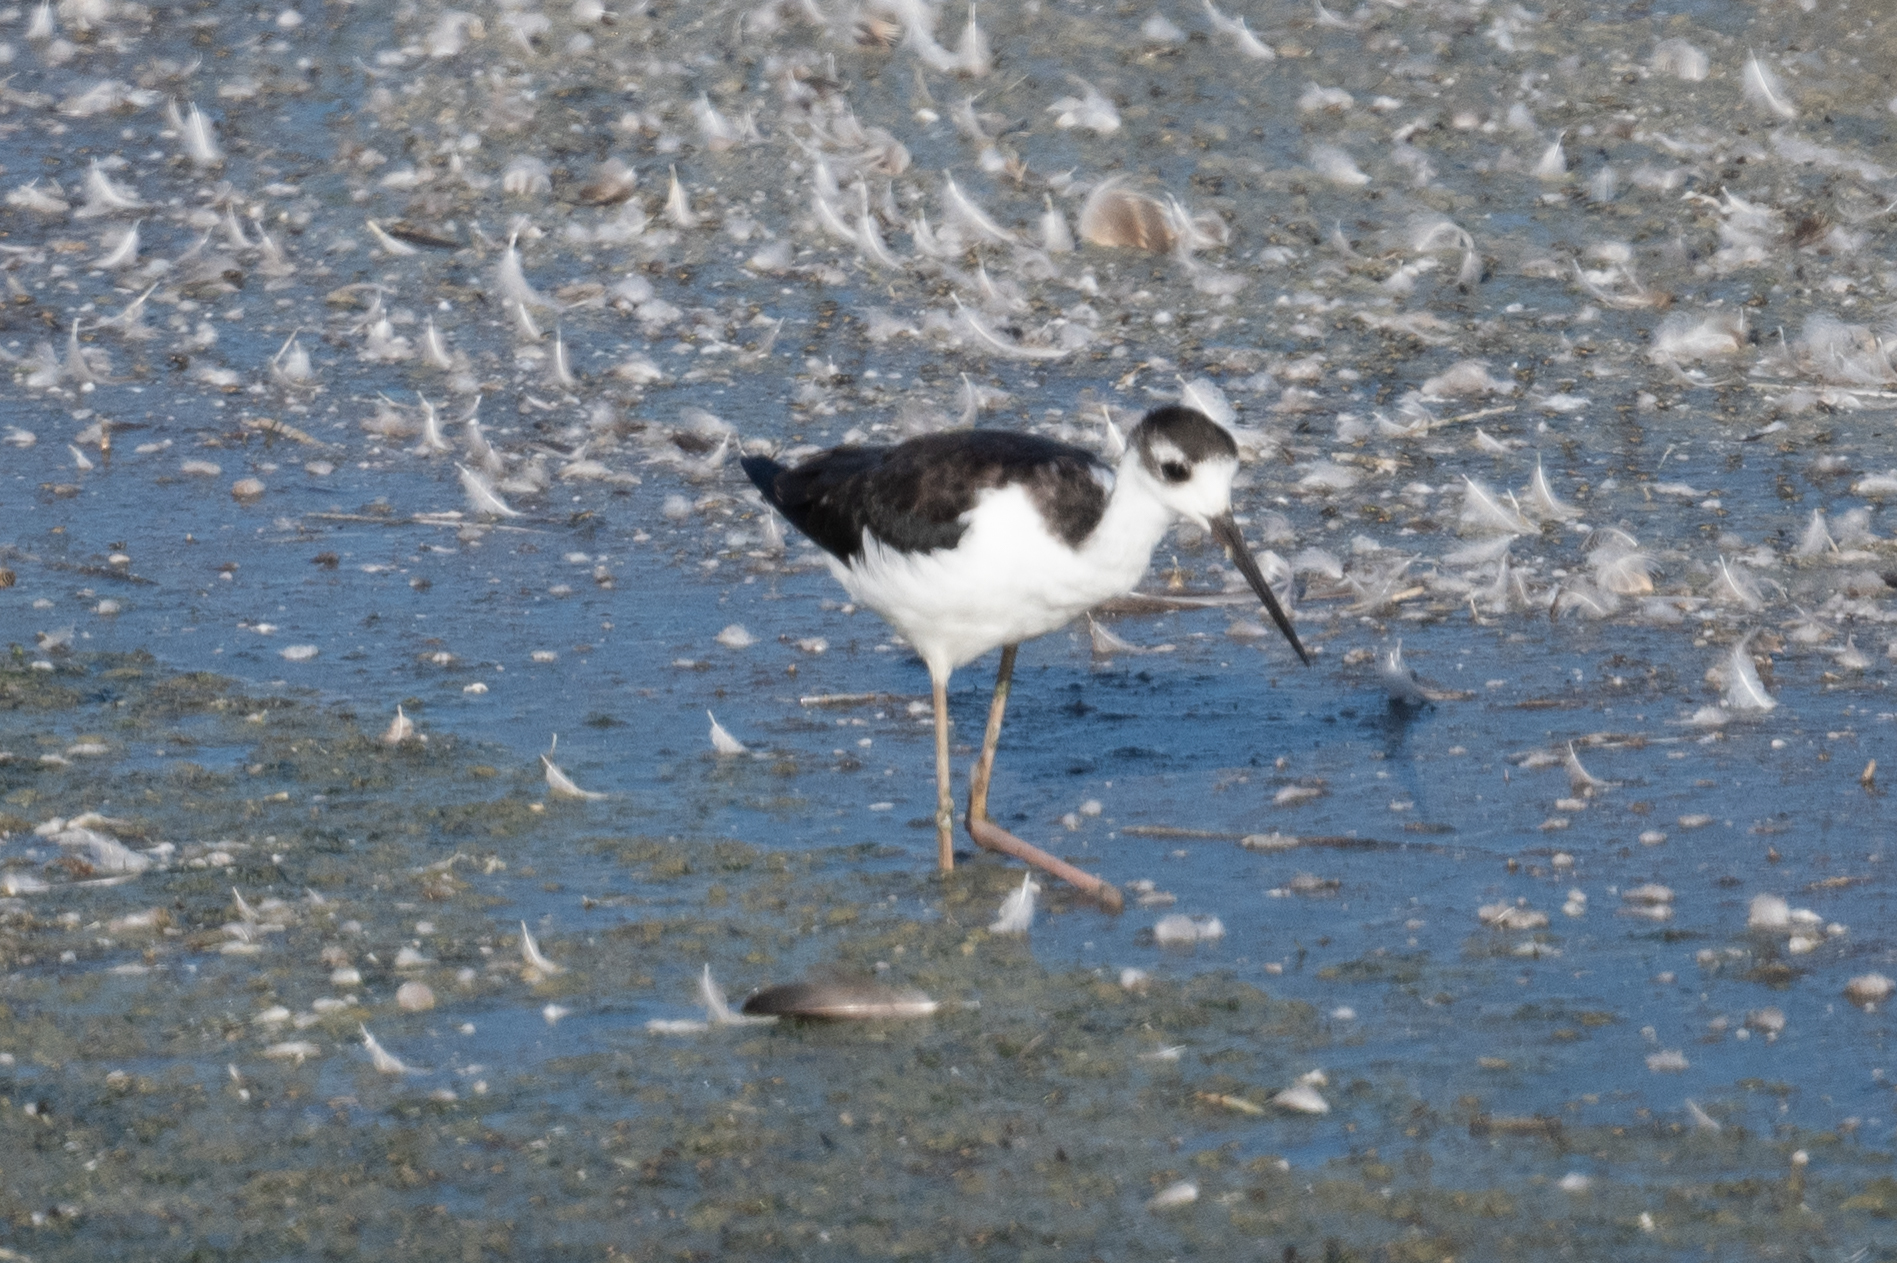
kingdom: Animalia
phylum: Chordata
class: Aves
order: Charadriiformes
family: Recurvirostridae
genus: Himantopus
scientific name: Himantopus mexicanus
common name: Black-necked stilt
